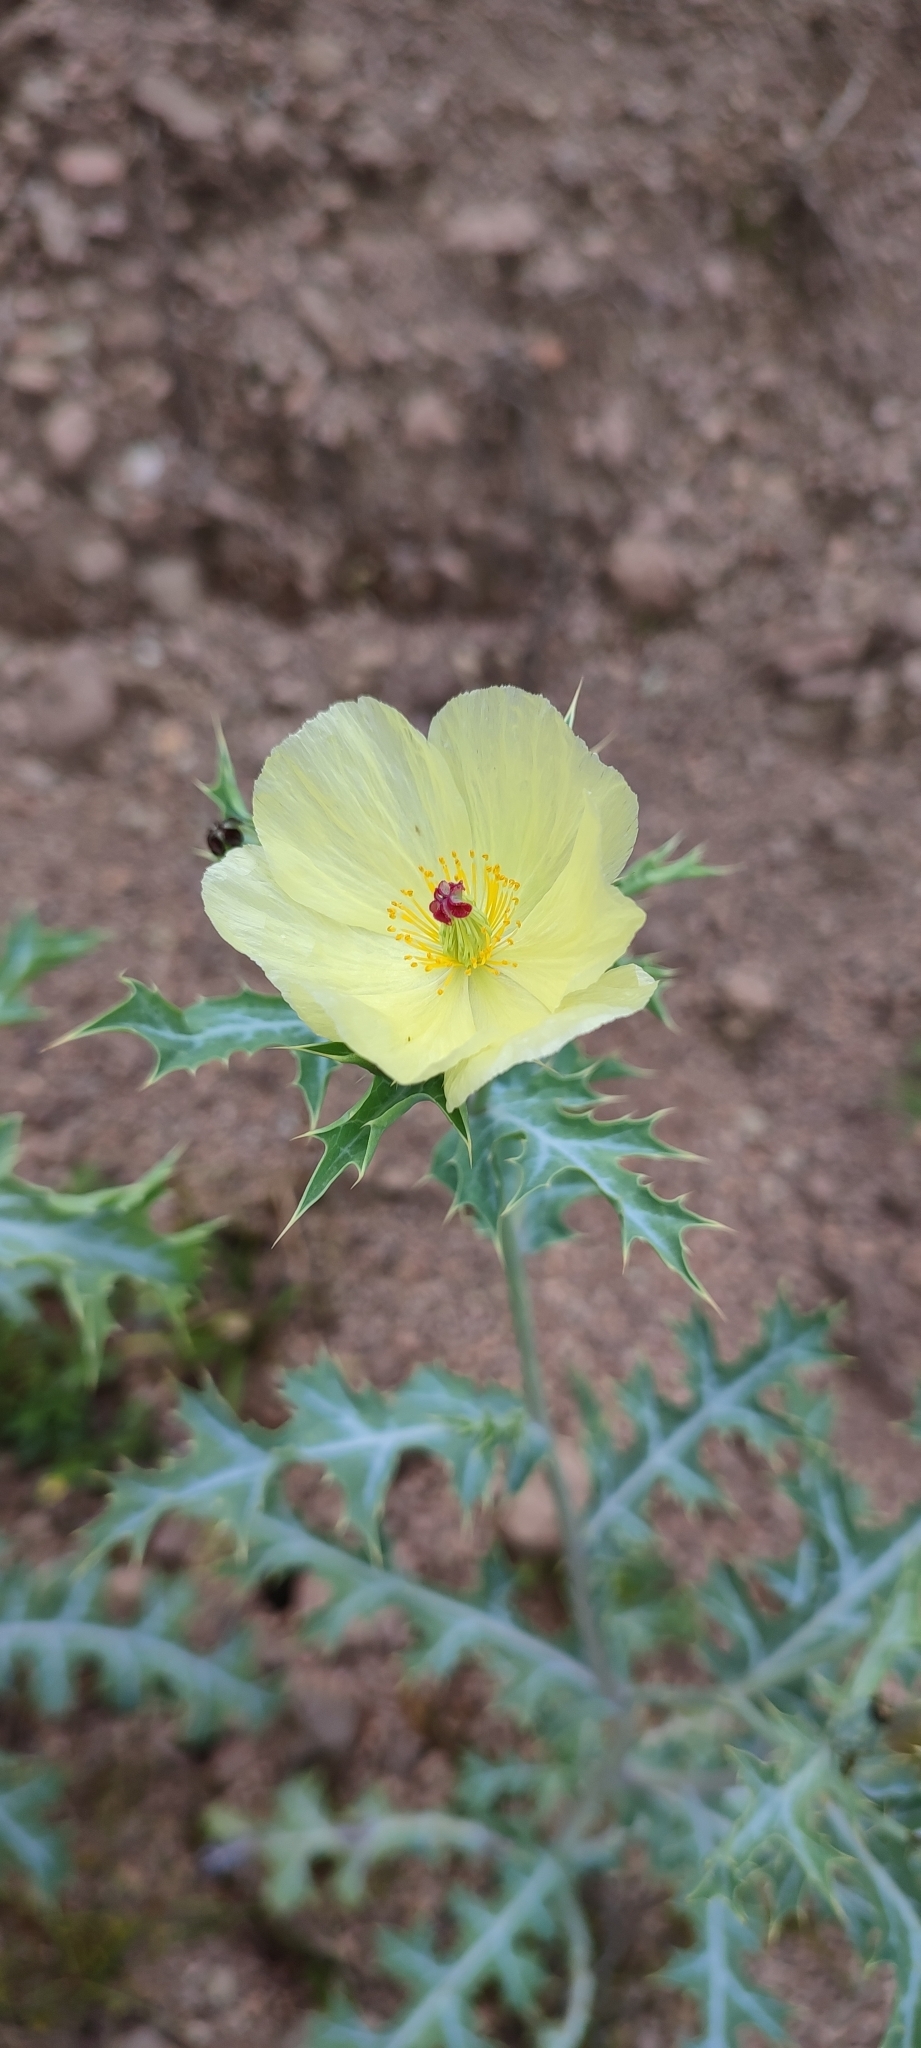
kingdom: Plantae
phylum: Tracheophyta
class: Magnoliopsida
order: Ranunculales
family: Papaveraceae
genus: Argemone
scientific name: Argemone ochroleuca
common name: White-flower mexican-poppy
